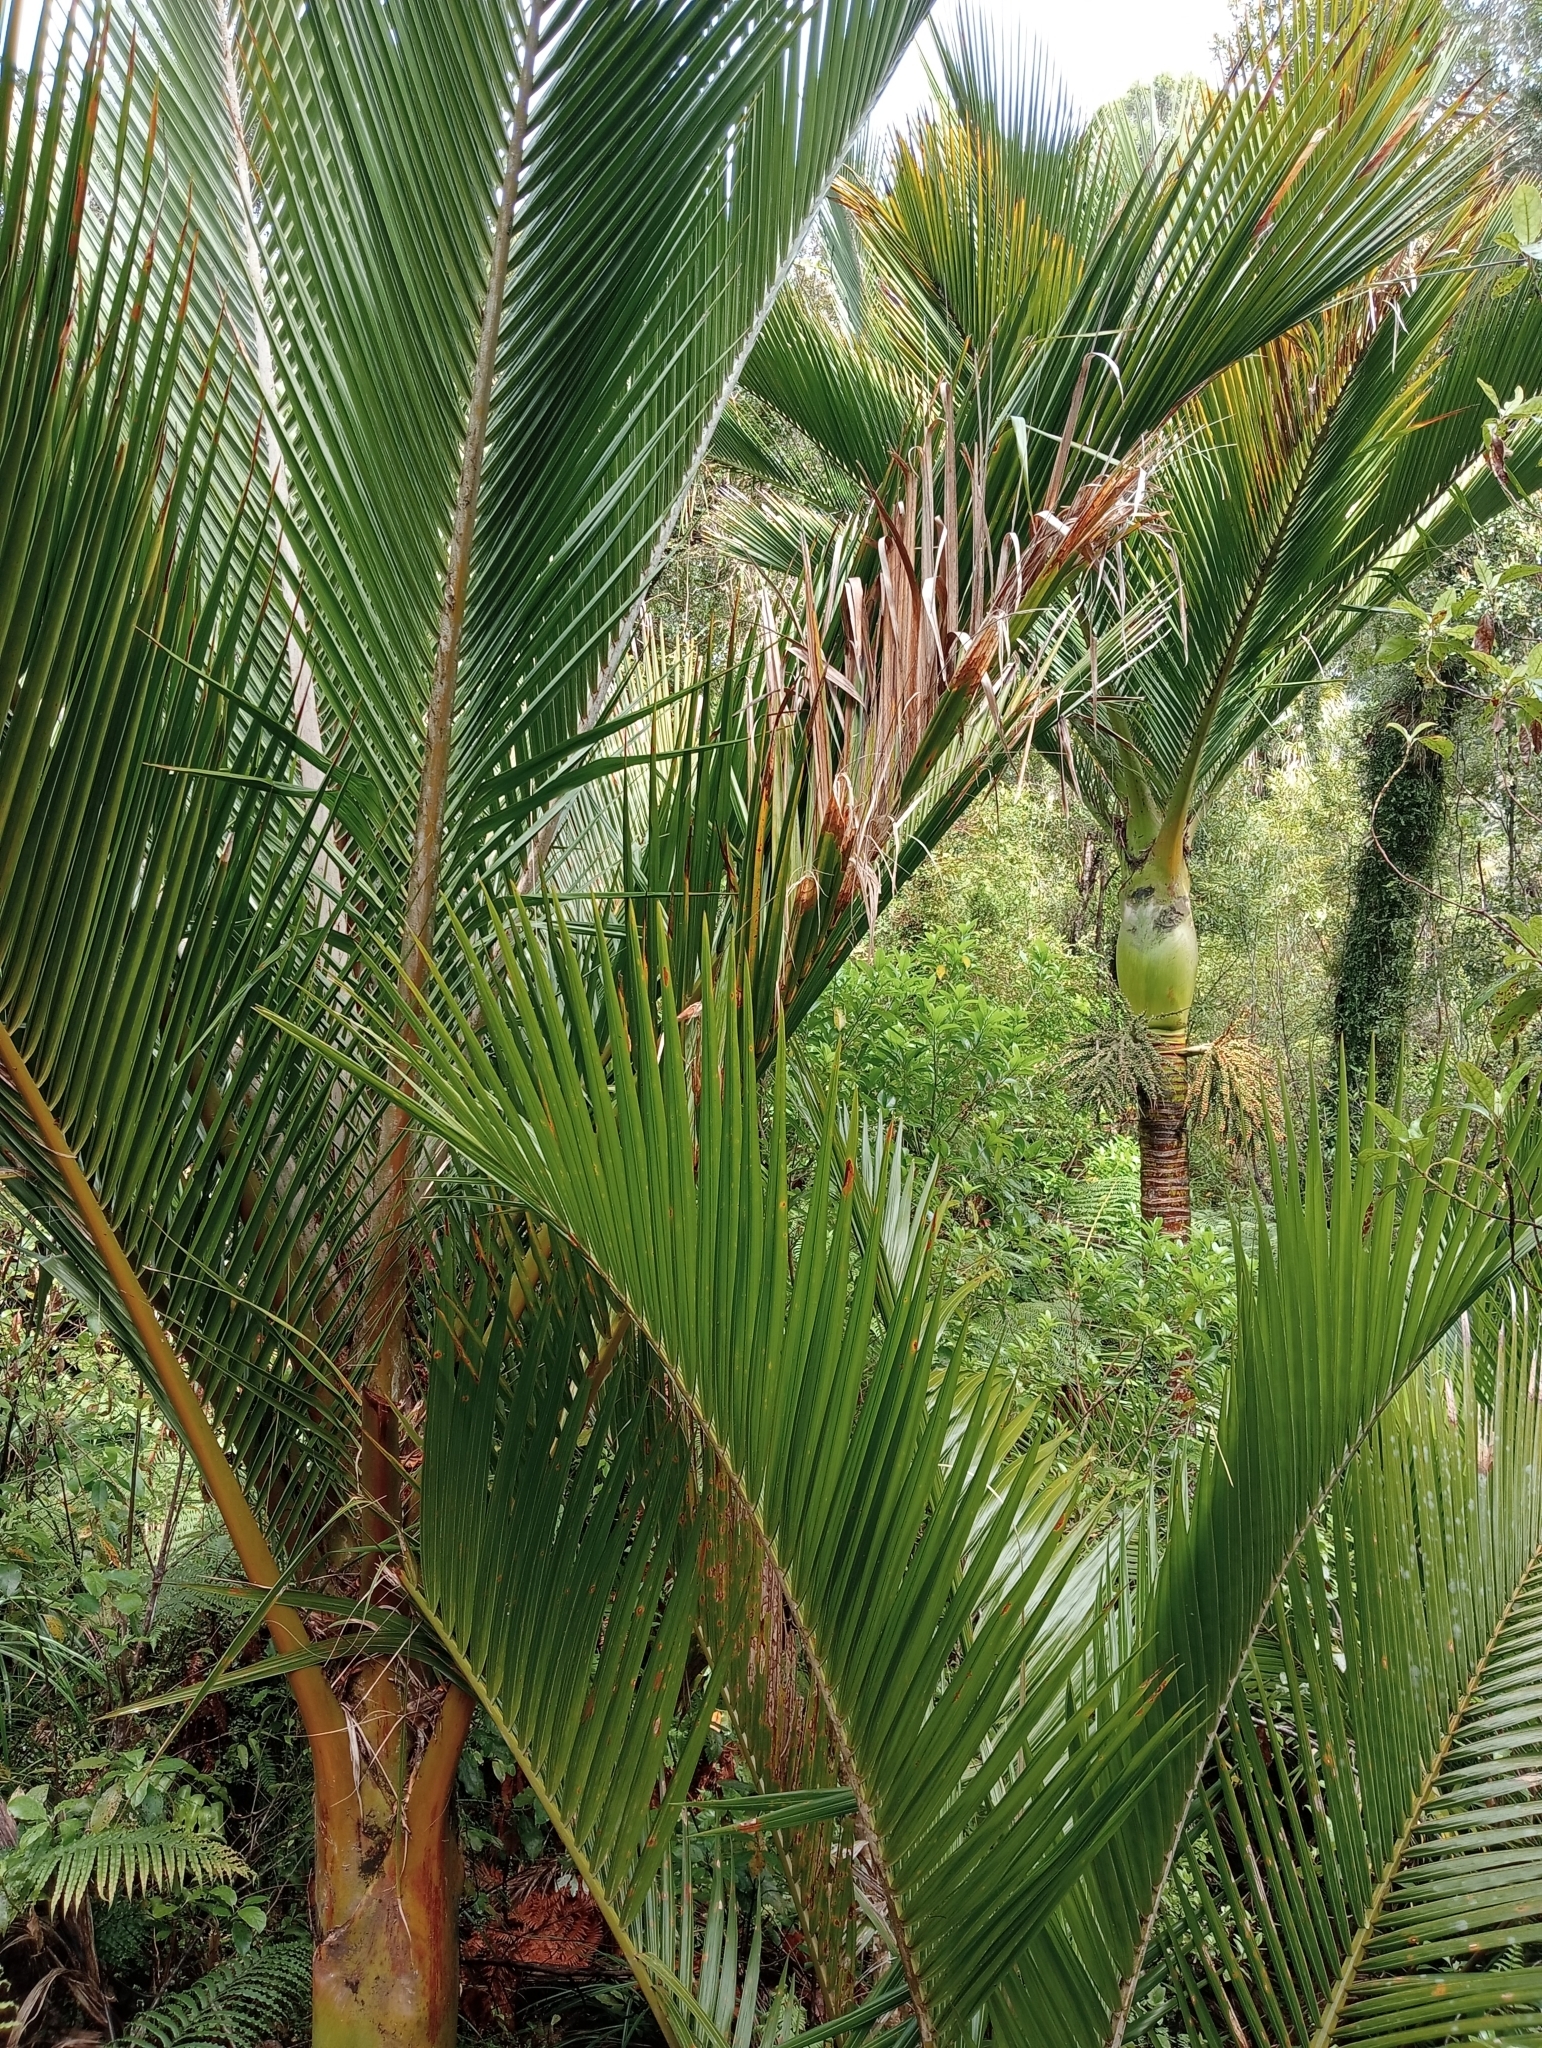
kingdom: Plantae
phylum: Tracheophyta
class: Liliopsida
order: Arecales
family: Arecaceae
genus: Rhopalostylis
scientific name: Rhopalostylis sapida
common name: Feather-duster palm
